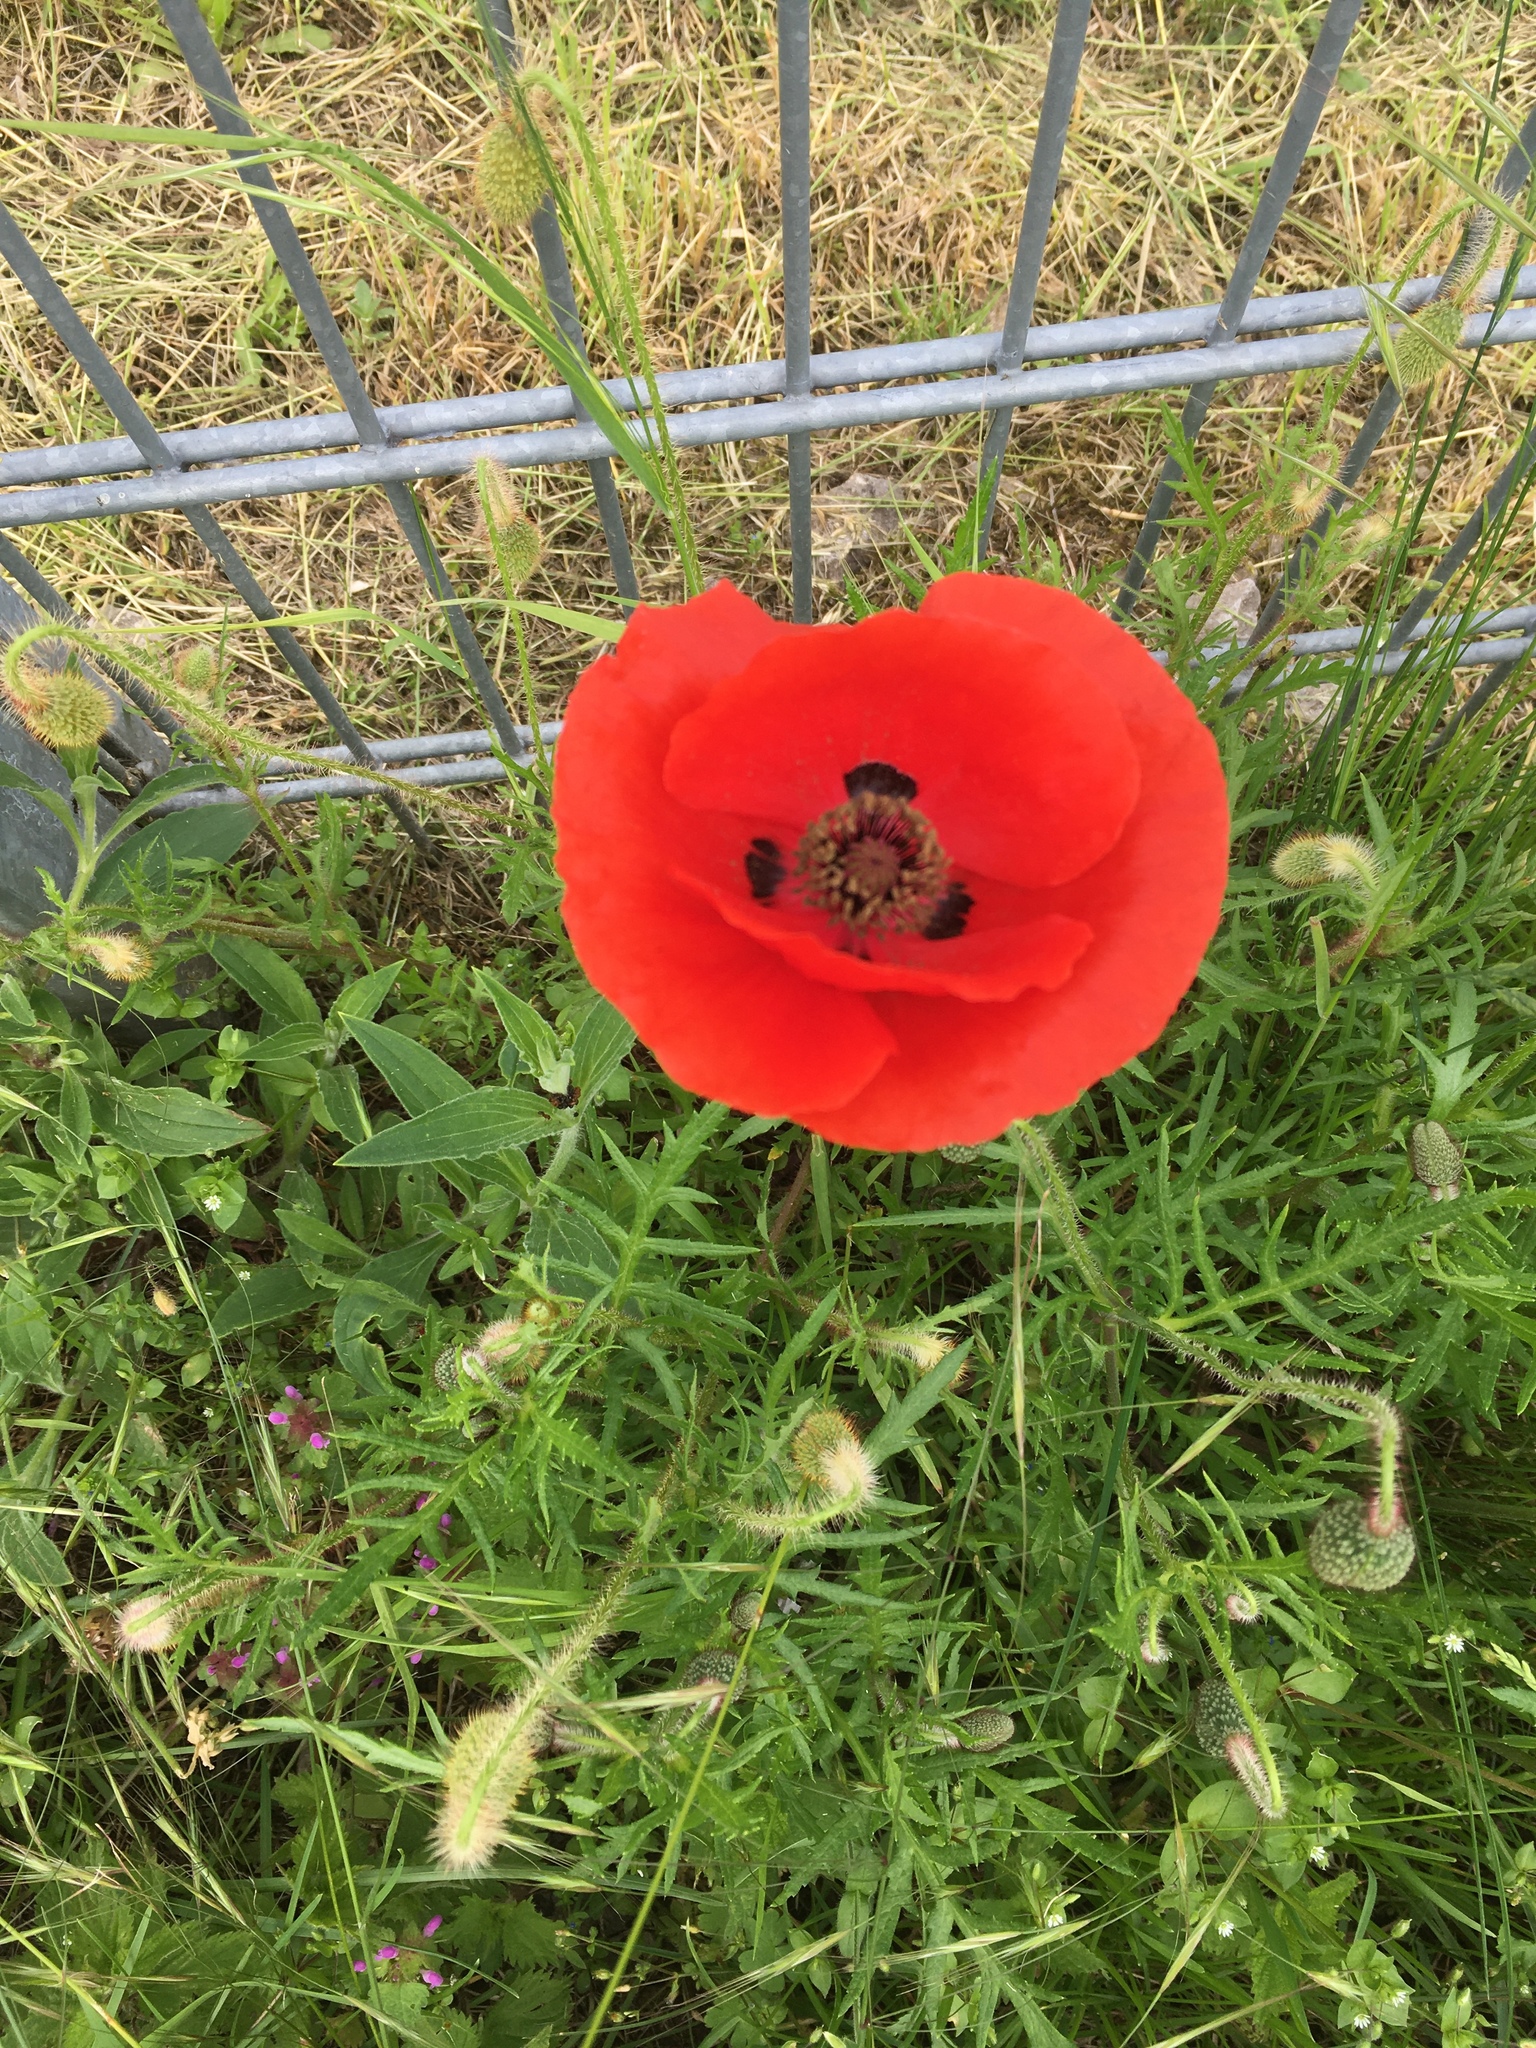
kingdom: Plantae
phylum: Tracheophyta
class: Magnoliopsida
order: Ranunculales
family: Papaveraceae
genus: Papaver
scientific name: Papaver rhoeas
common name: Corn poppy
